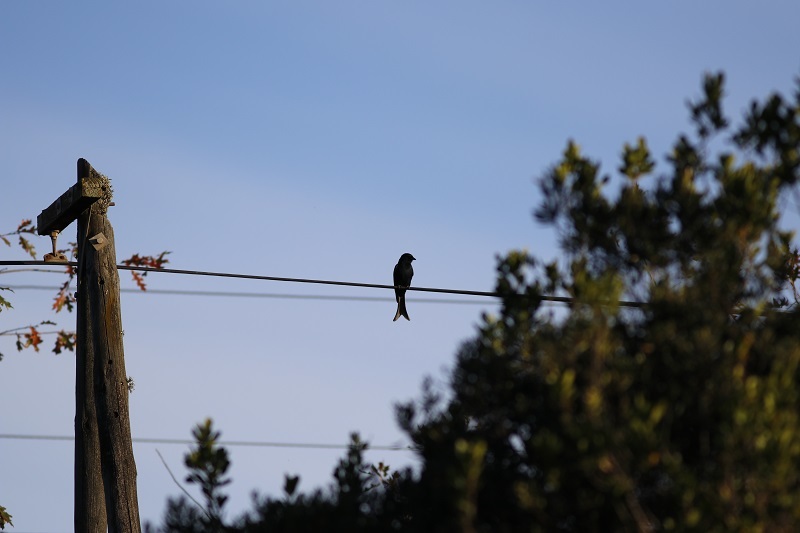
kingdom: Animalia
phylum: Chordata
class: Aves
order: Passeriformes
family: Dicruridae
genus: Dicrurus
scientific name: Dicrurus adsimilis
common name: Fork-tailed drongo
